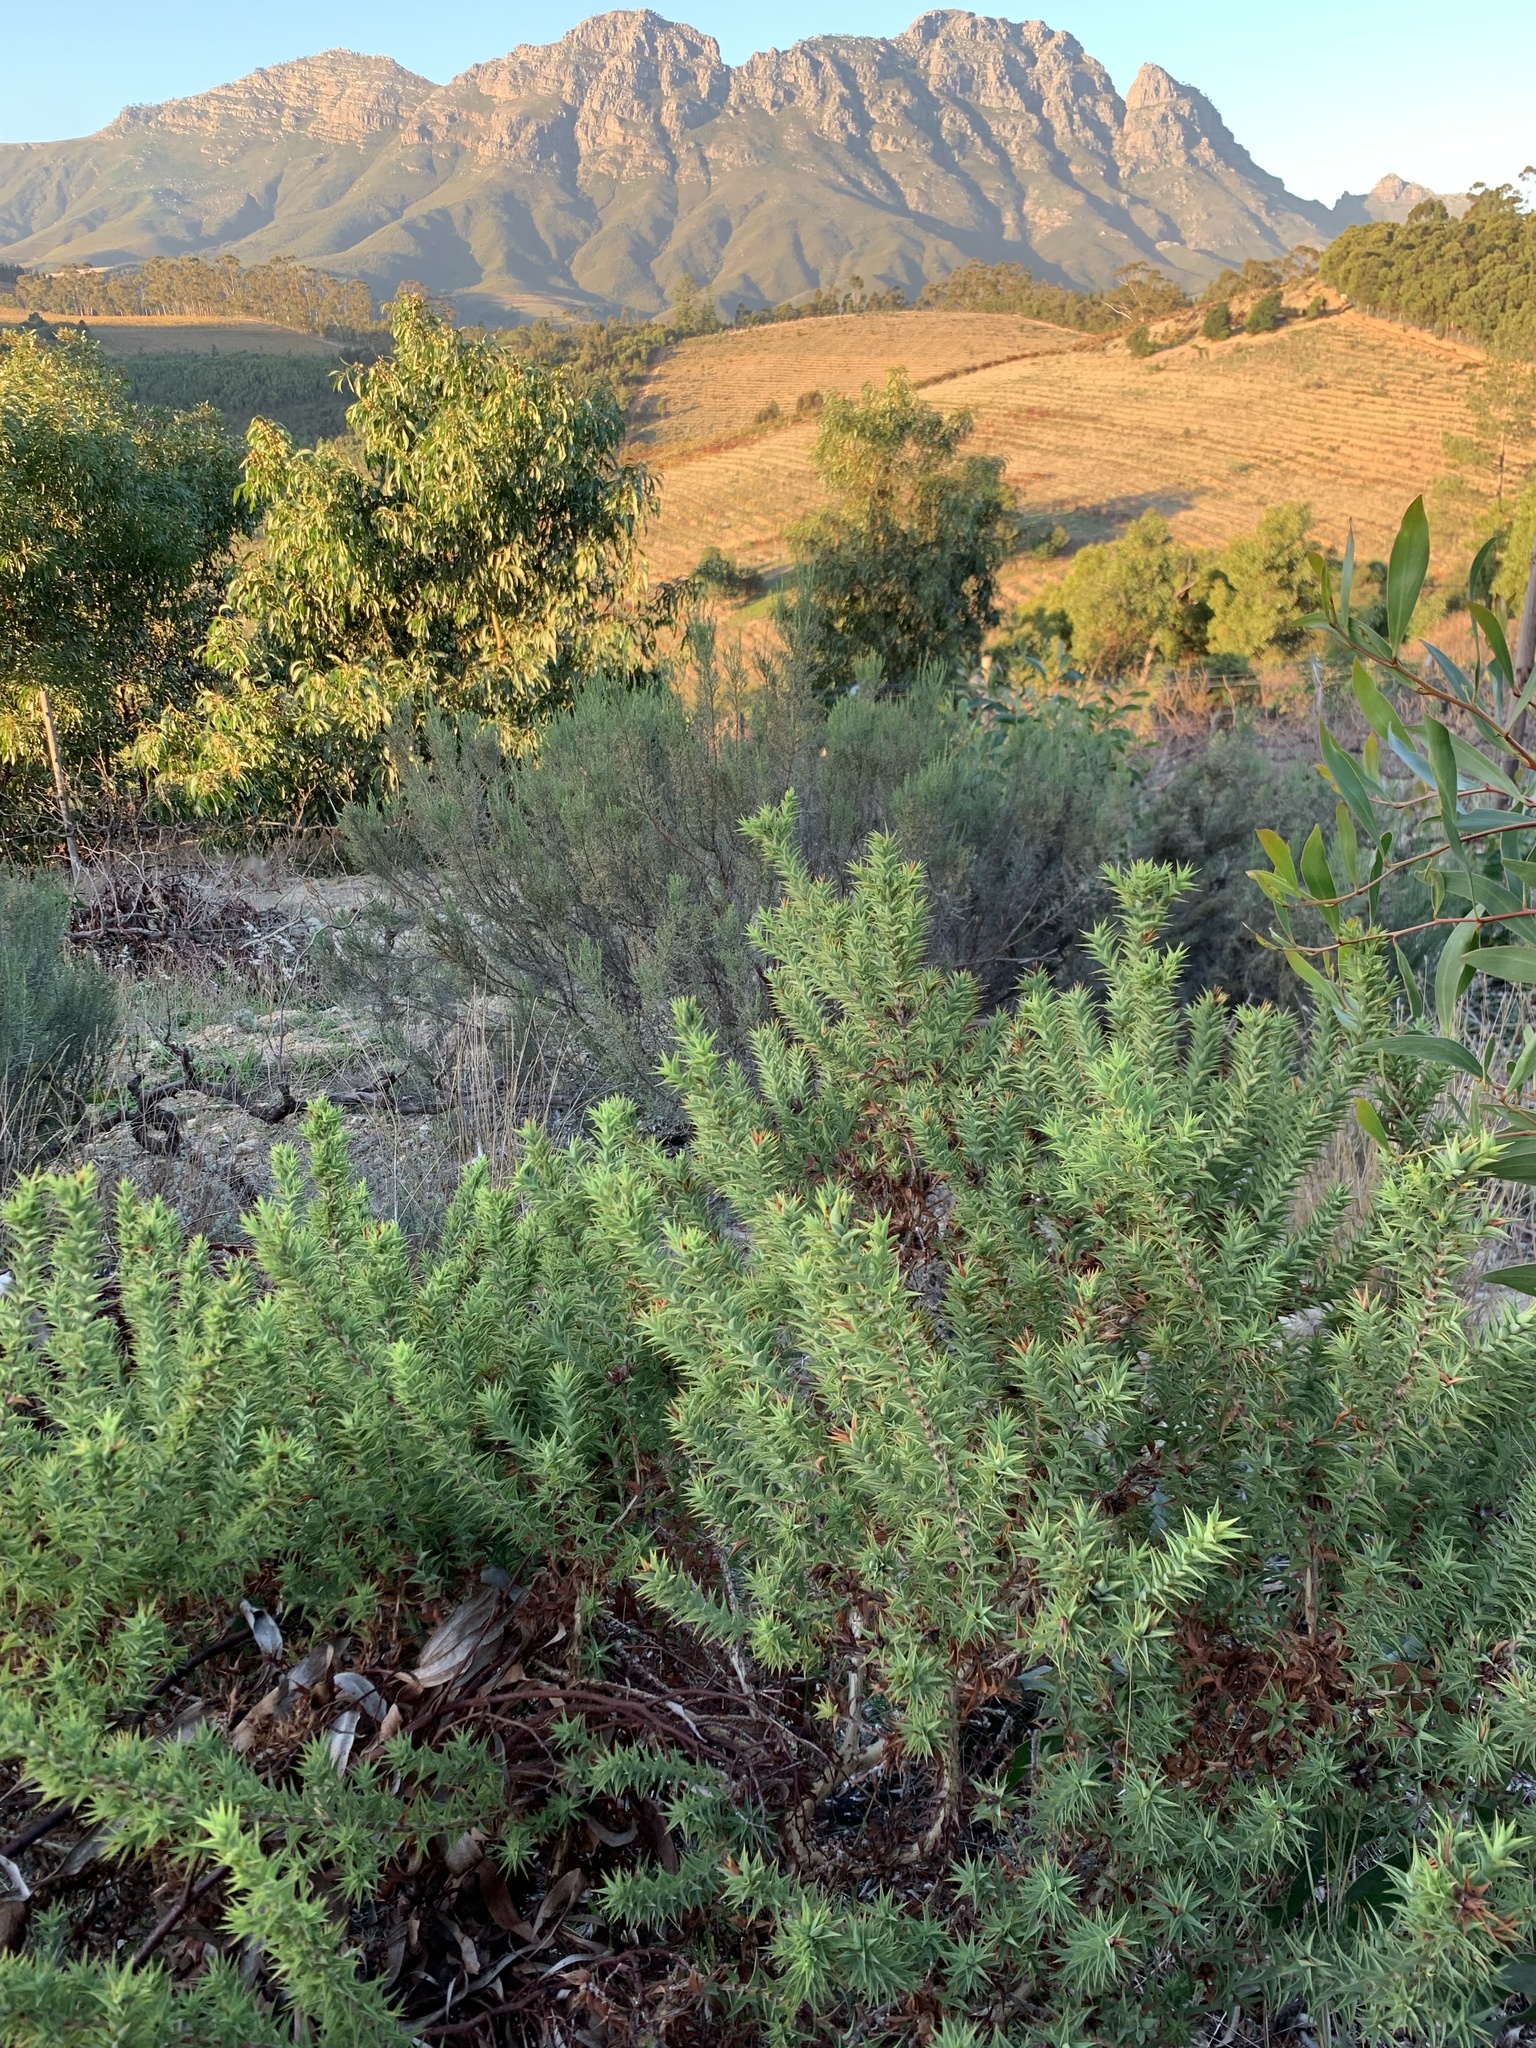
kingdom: Plantae
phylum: Tracheophyta
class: Magnoliopsida
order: Fabales
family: Fabaceae
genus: Aspalathus
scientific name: Aspalathus cordata
